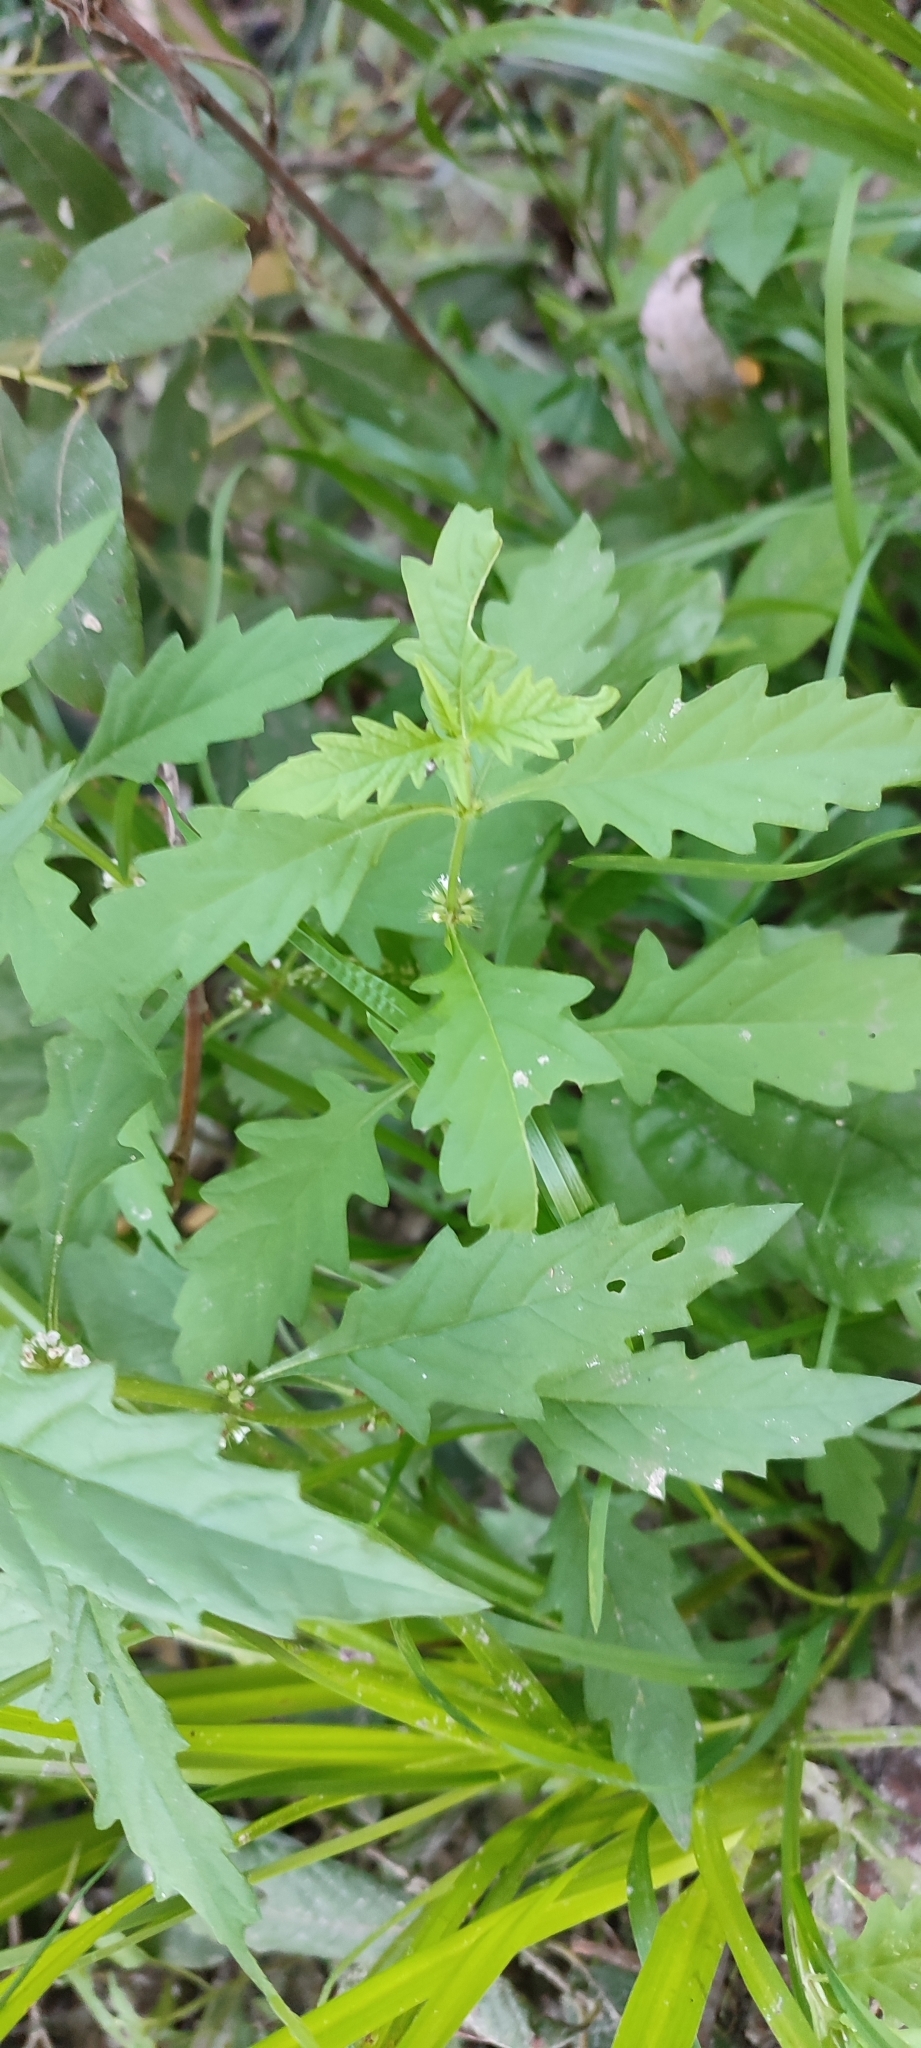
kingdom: Plantae
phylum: Tracheophyta
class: Magnoliopsida
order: Lamiales
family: Lamiaceae
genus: Lycopus
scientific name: Lycopus europaeus
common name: European bugleweed
